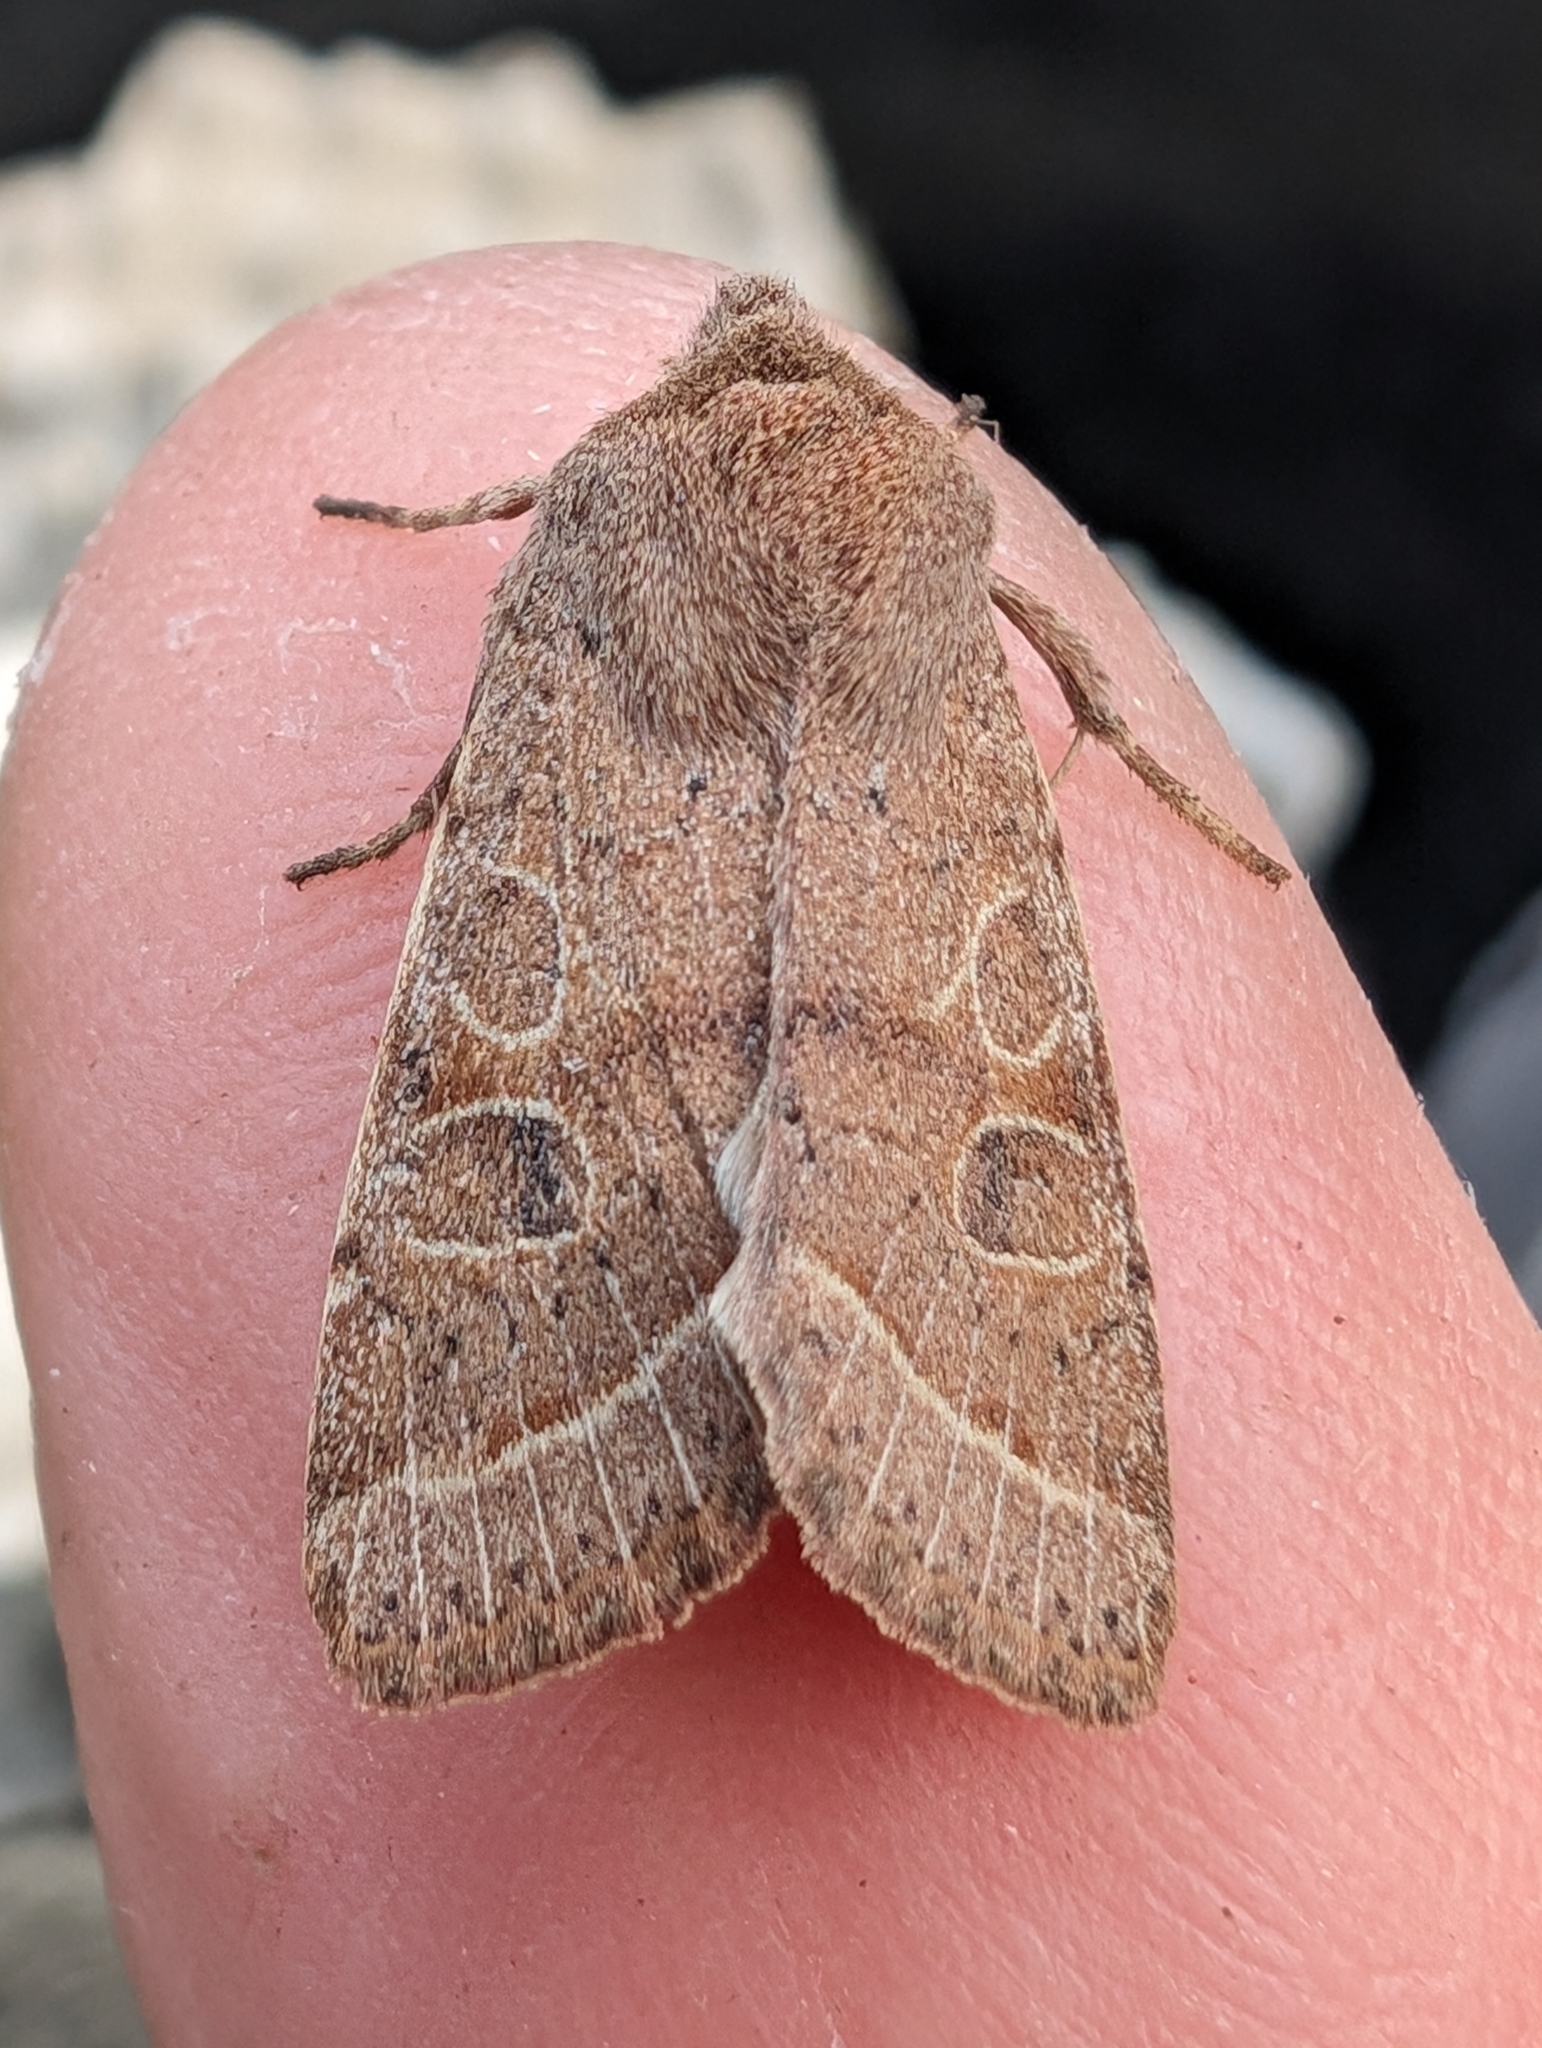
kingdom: Animalia
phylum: Arthropoda
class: Insecta
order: Lepidoptera
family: Noctuidae
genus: Orthosia
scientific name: Orthosia cerasi
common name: Common quaker
